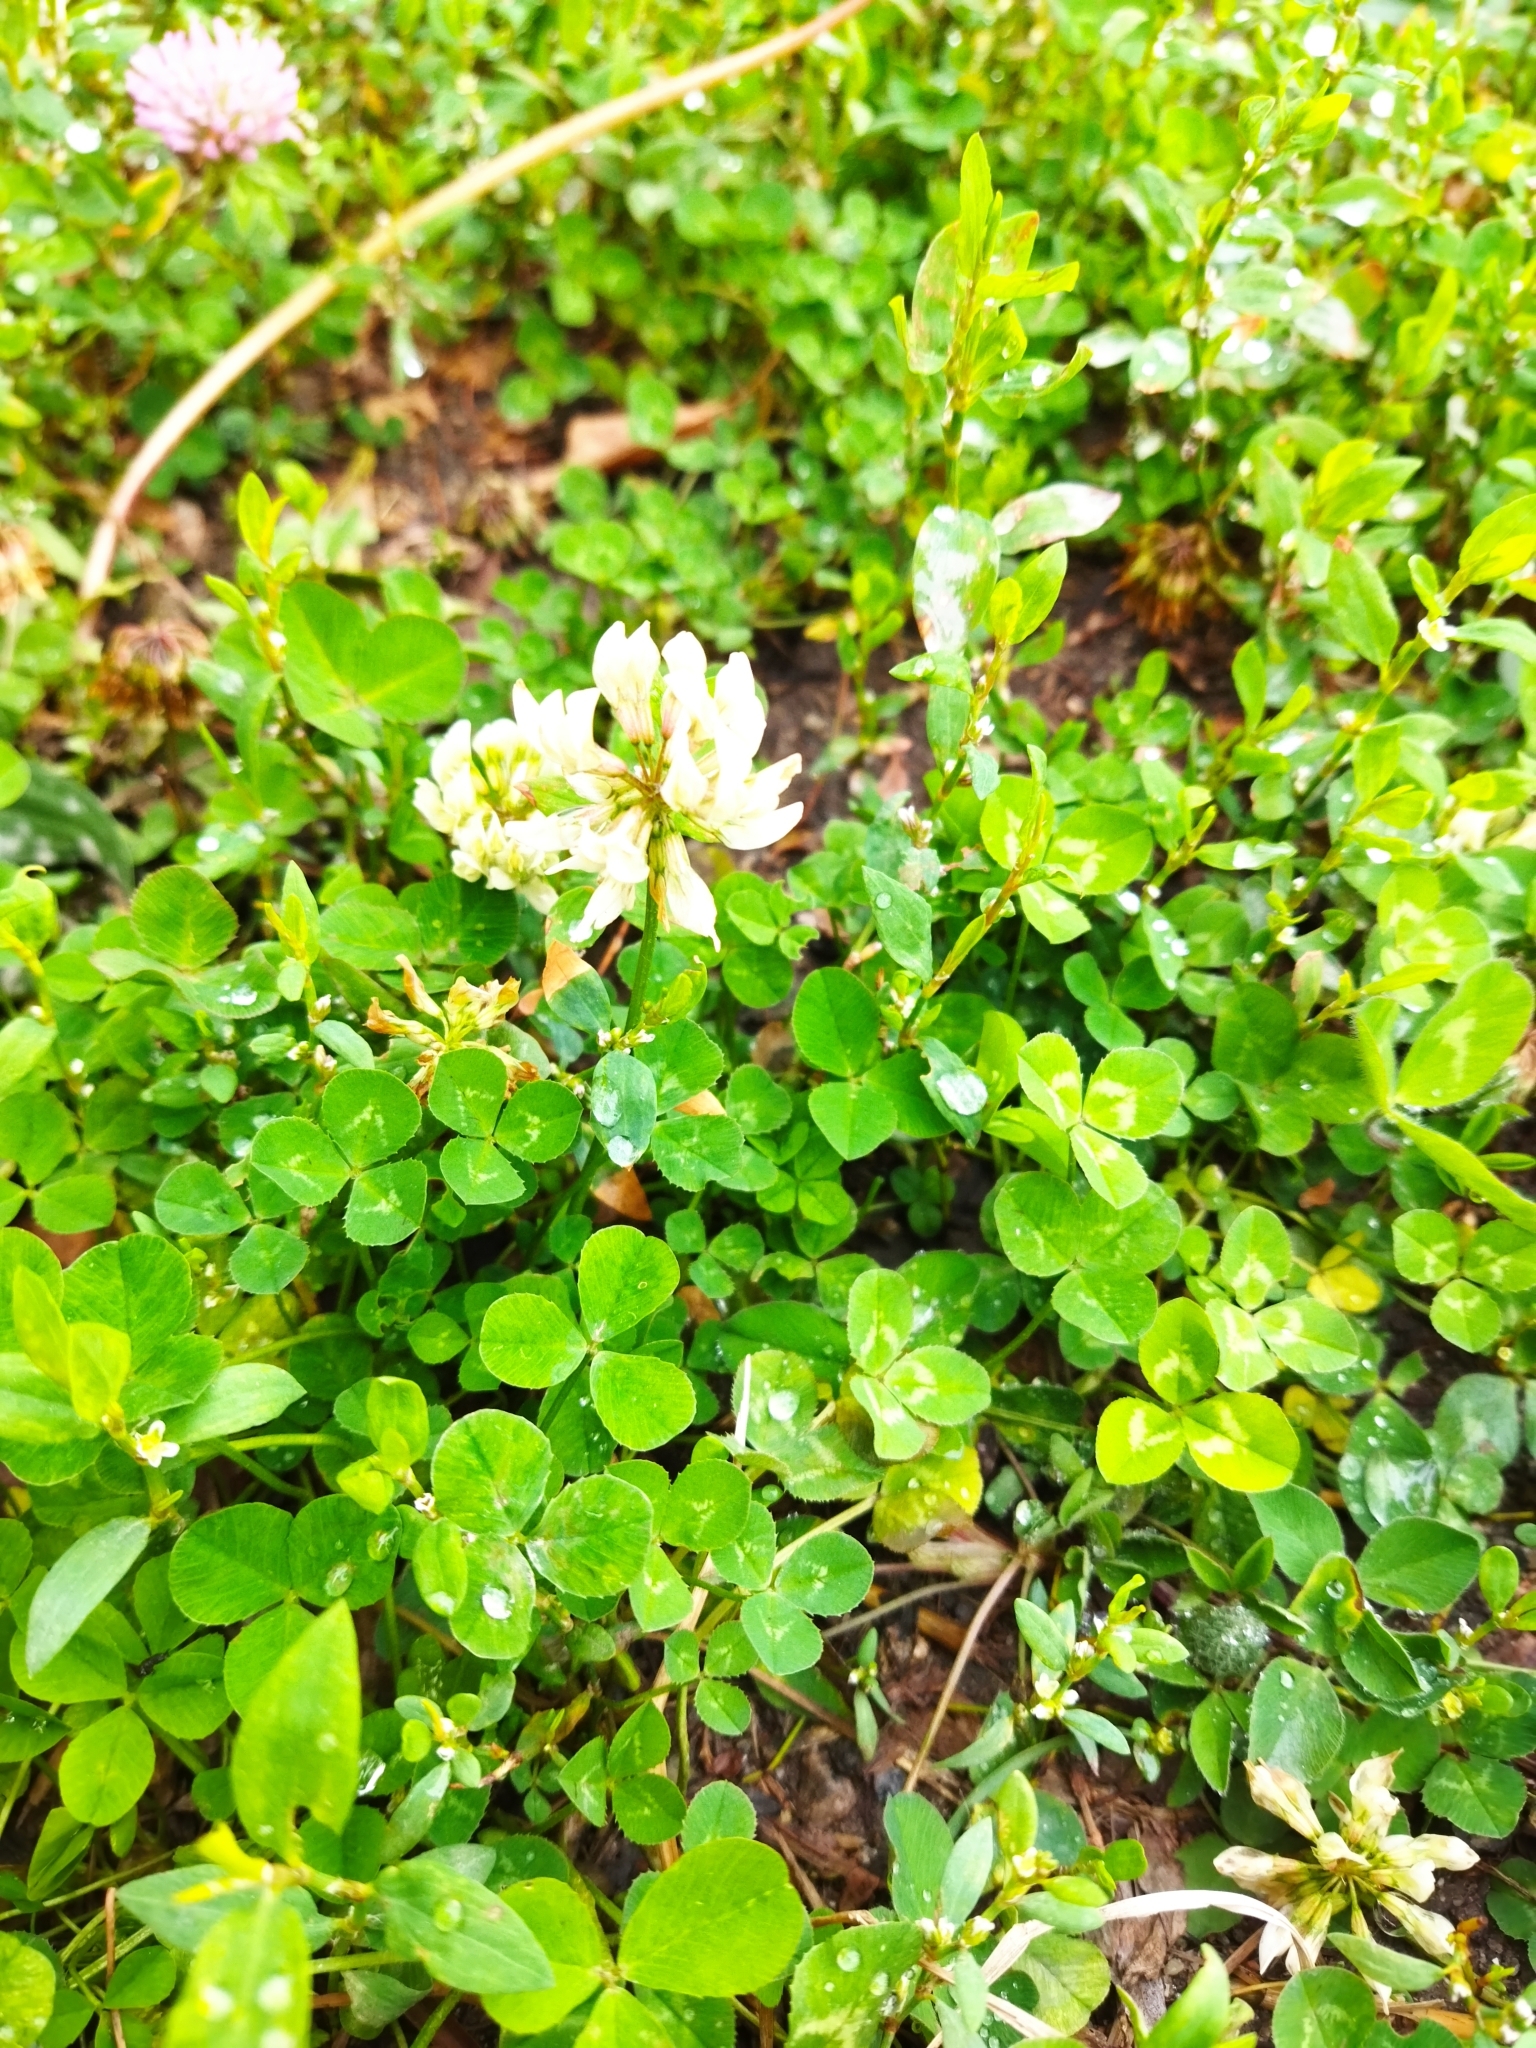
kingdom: Plantae
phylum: Tracheophyta
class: Magnoliopsida
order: Fabales
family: Fabaceae
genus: Trifolium
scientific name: Trifolium repens
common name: White clover
